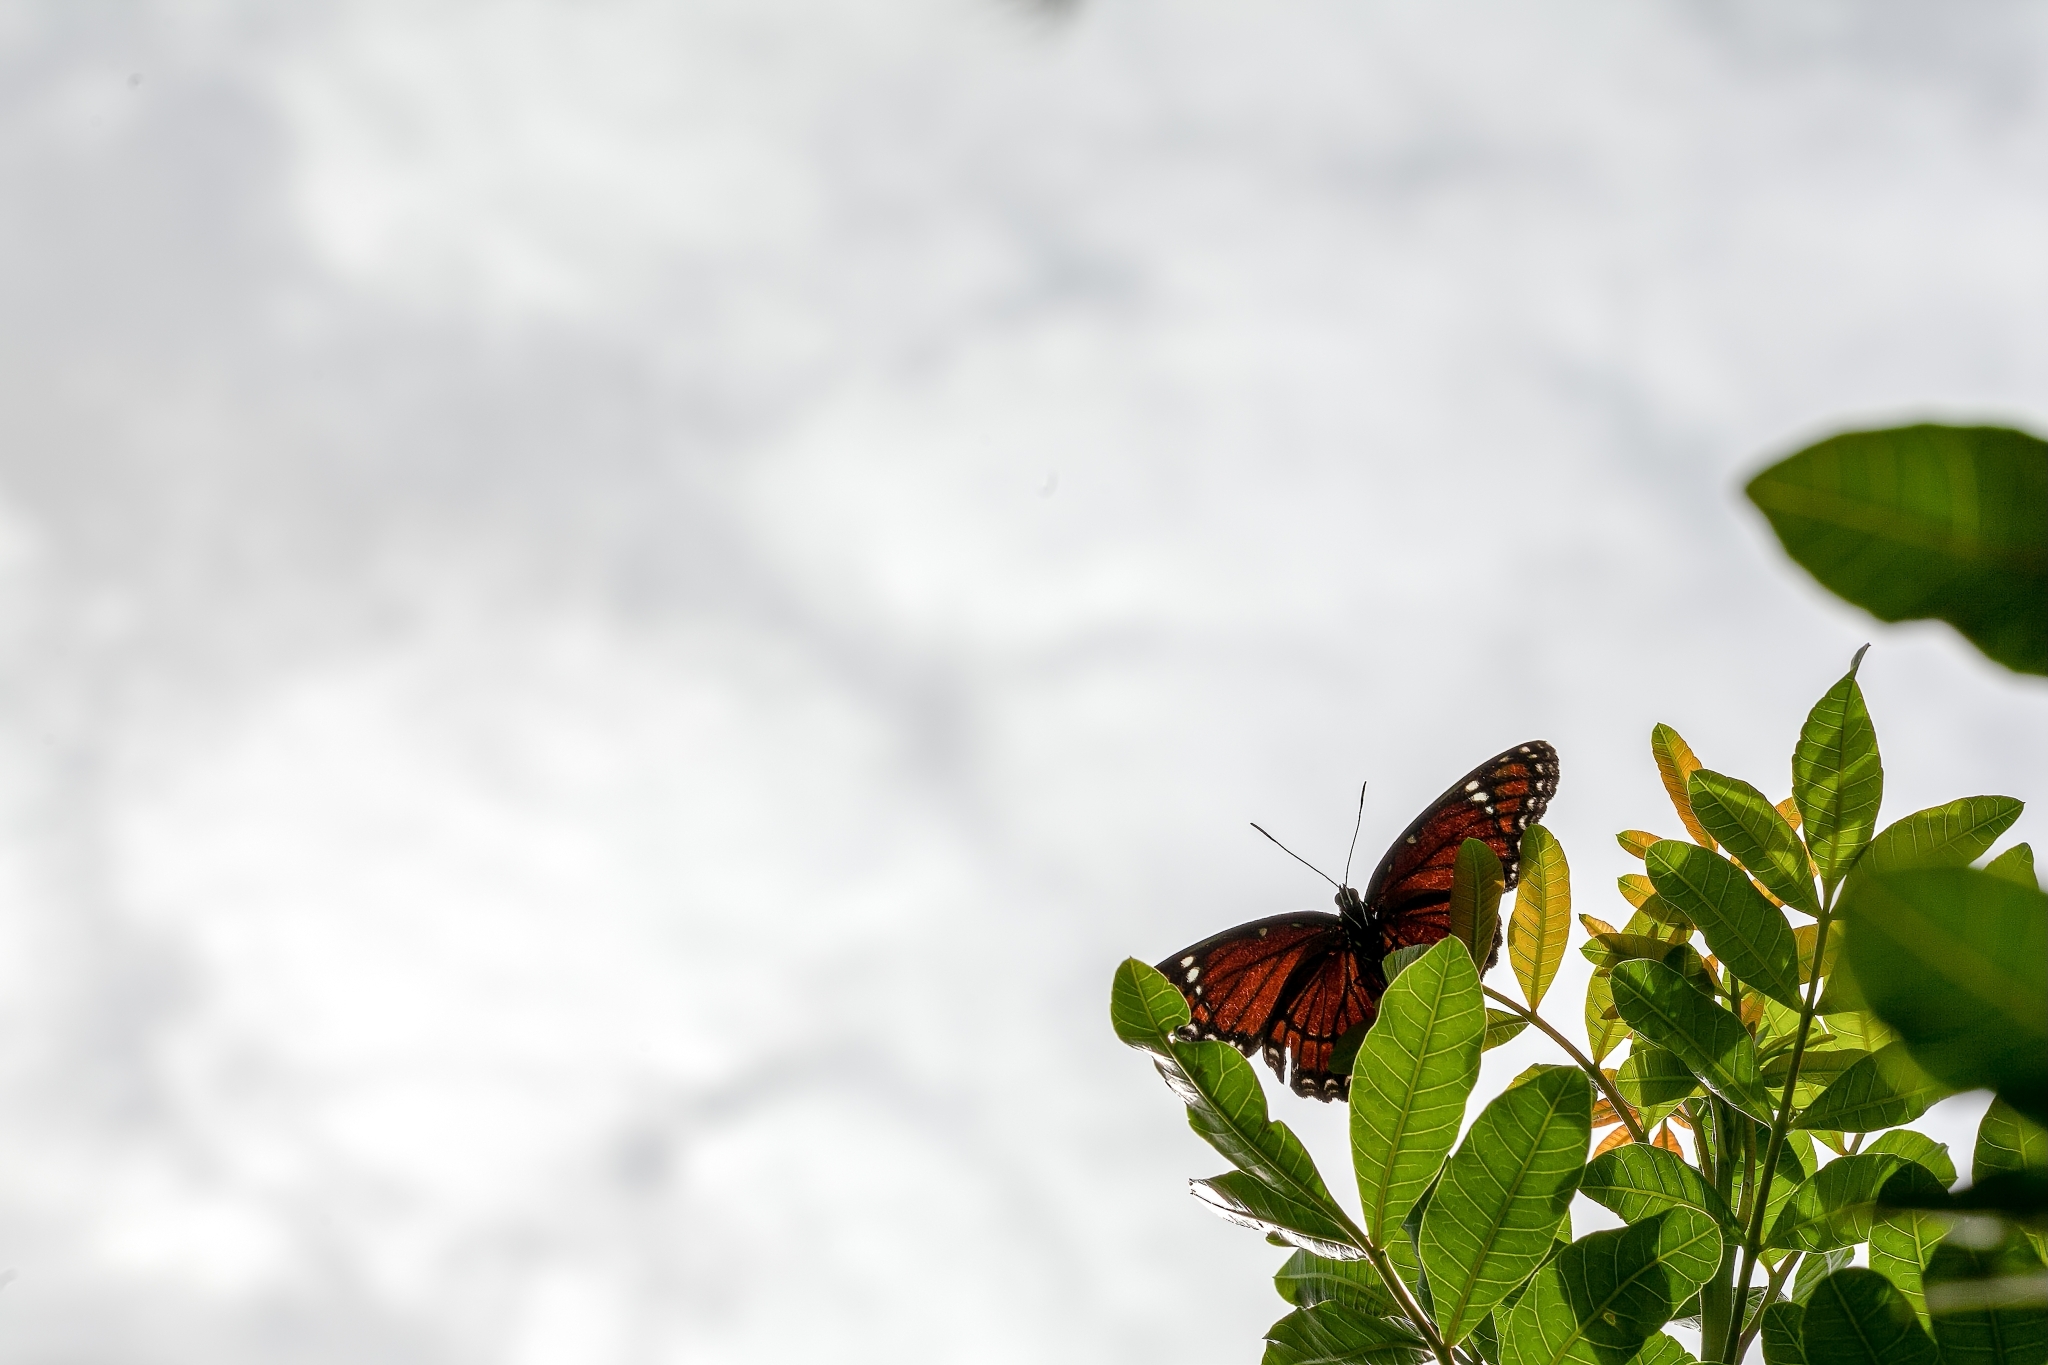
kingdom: Animalia
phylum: Arthropoda
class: Insecta
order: Lepidoptera
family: Nymphalidae
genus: Limenitis
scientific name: Limenitis archippus
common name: Viceroy
